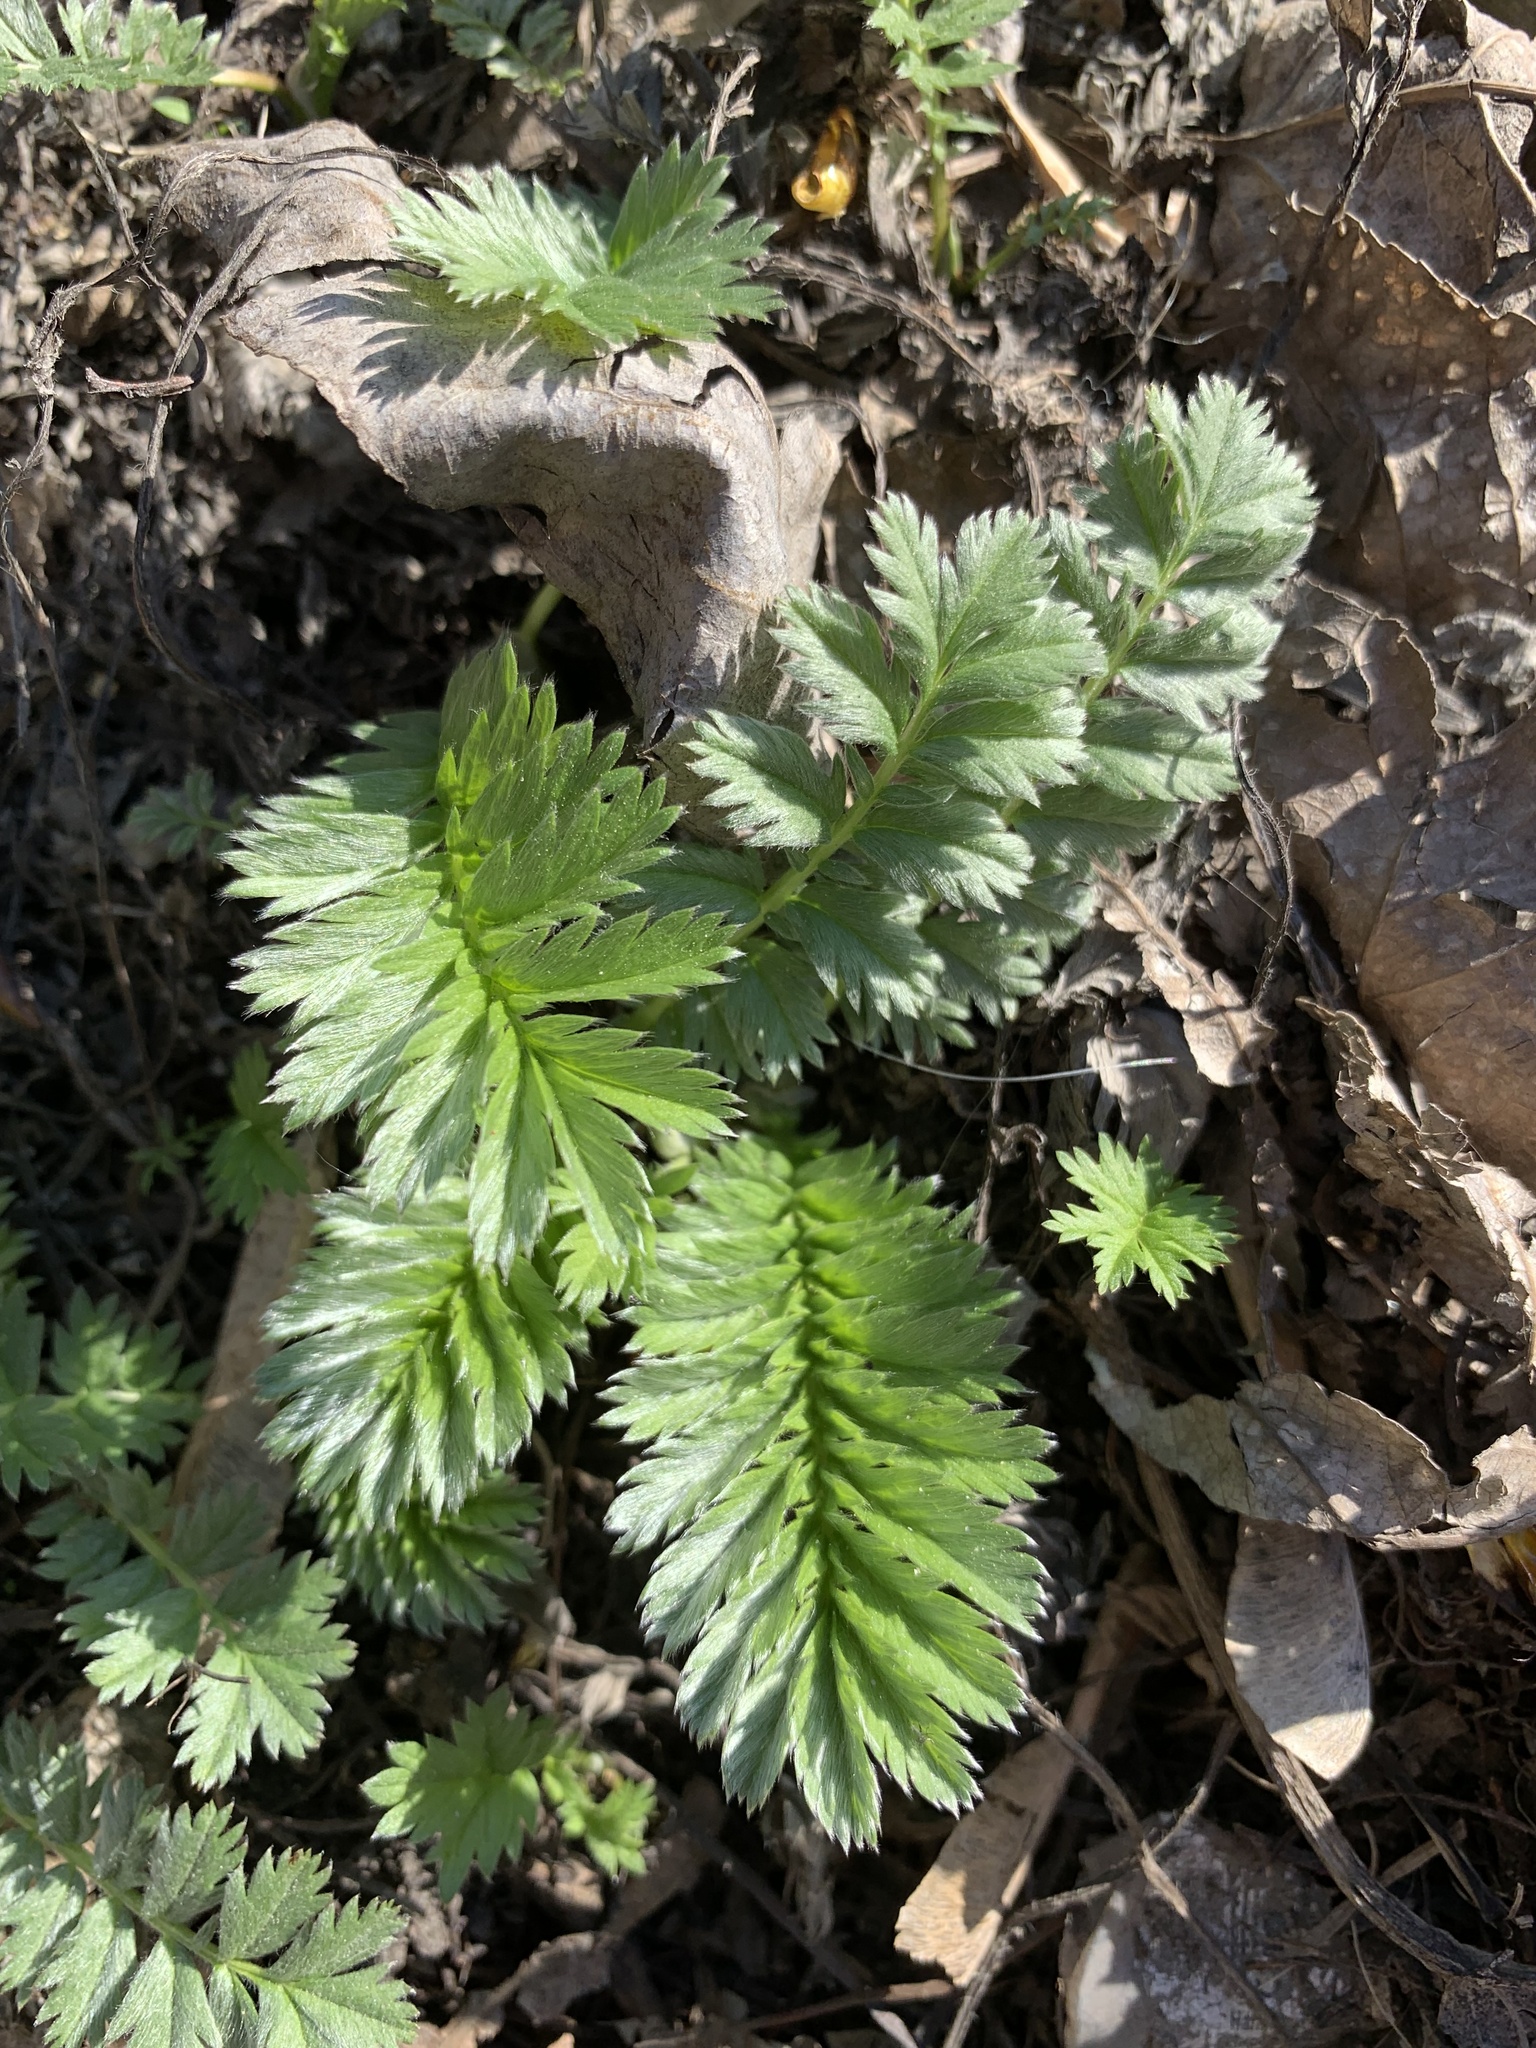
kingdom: Plantae
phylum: Tracheophyta
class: Magnoliopsida
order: Rosales
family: Rosaceae
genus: Argentina
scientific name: Argentina anserina
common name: Common silverweed
